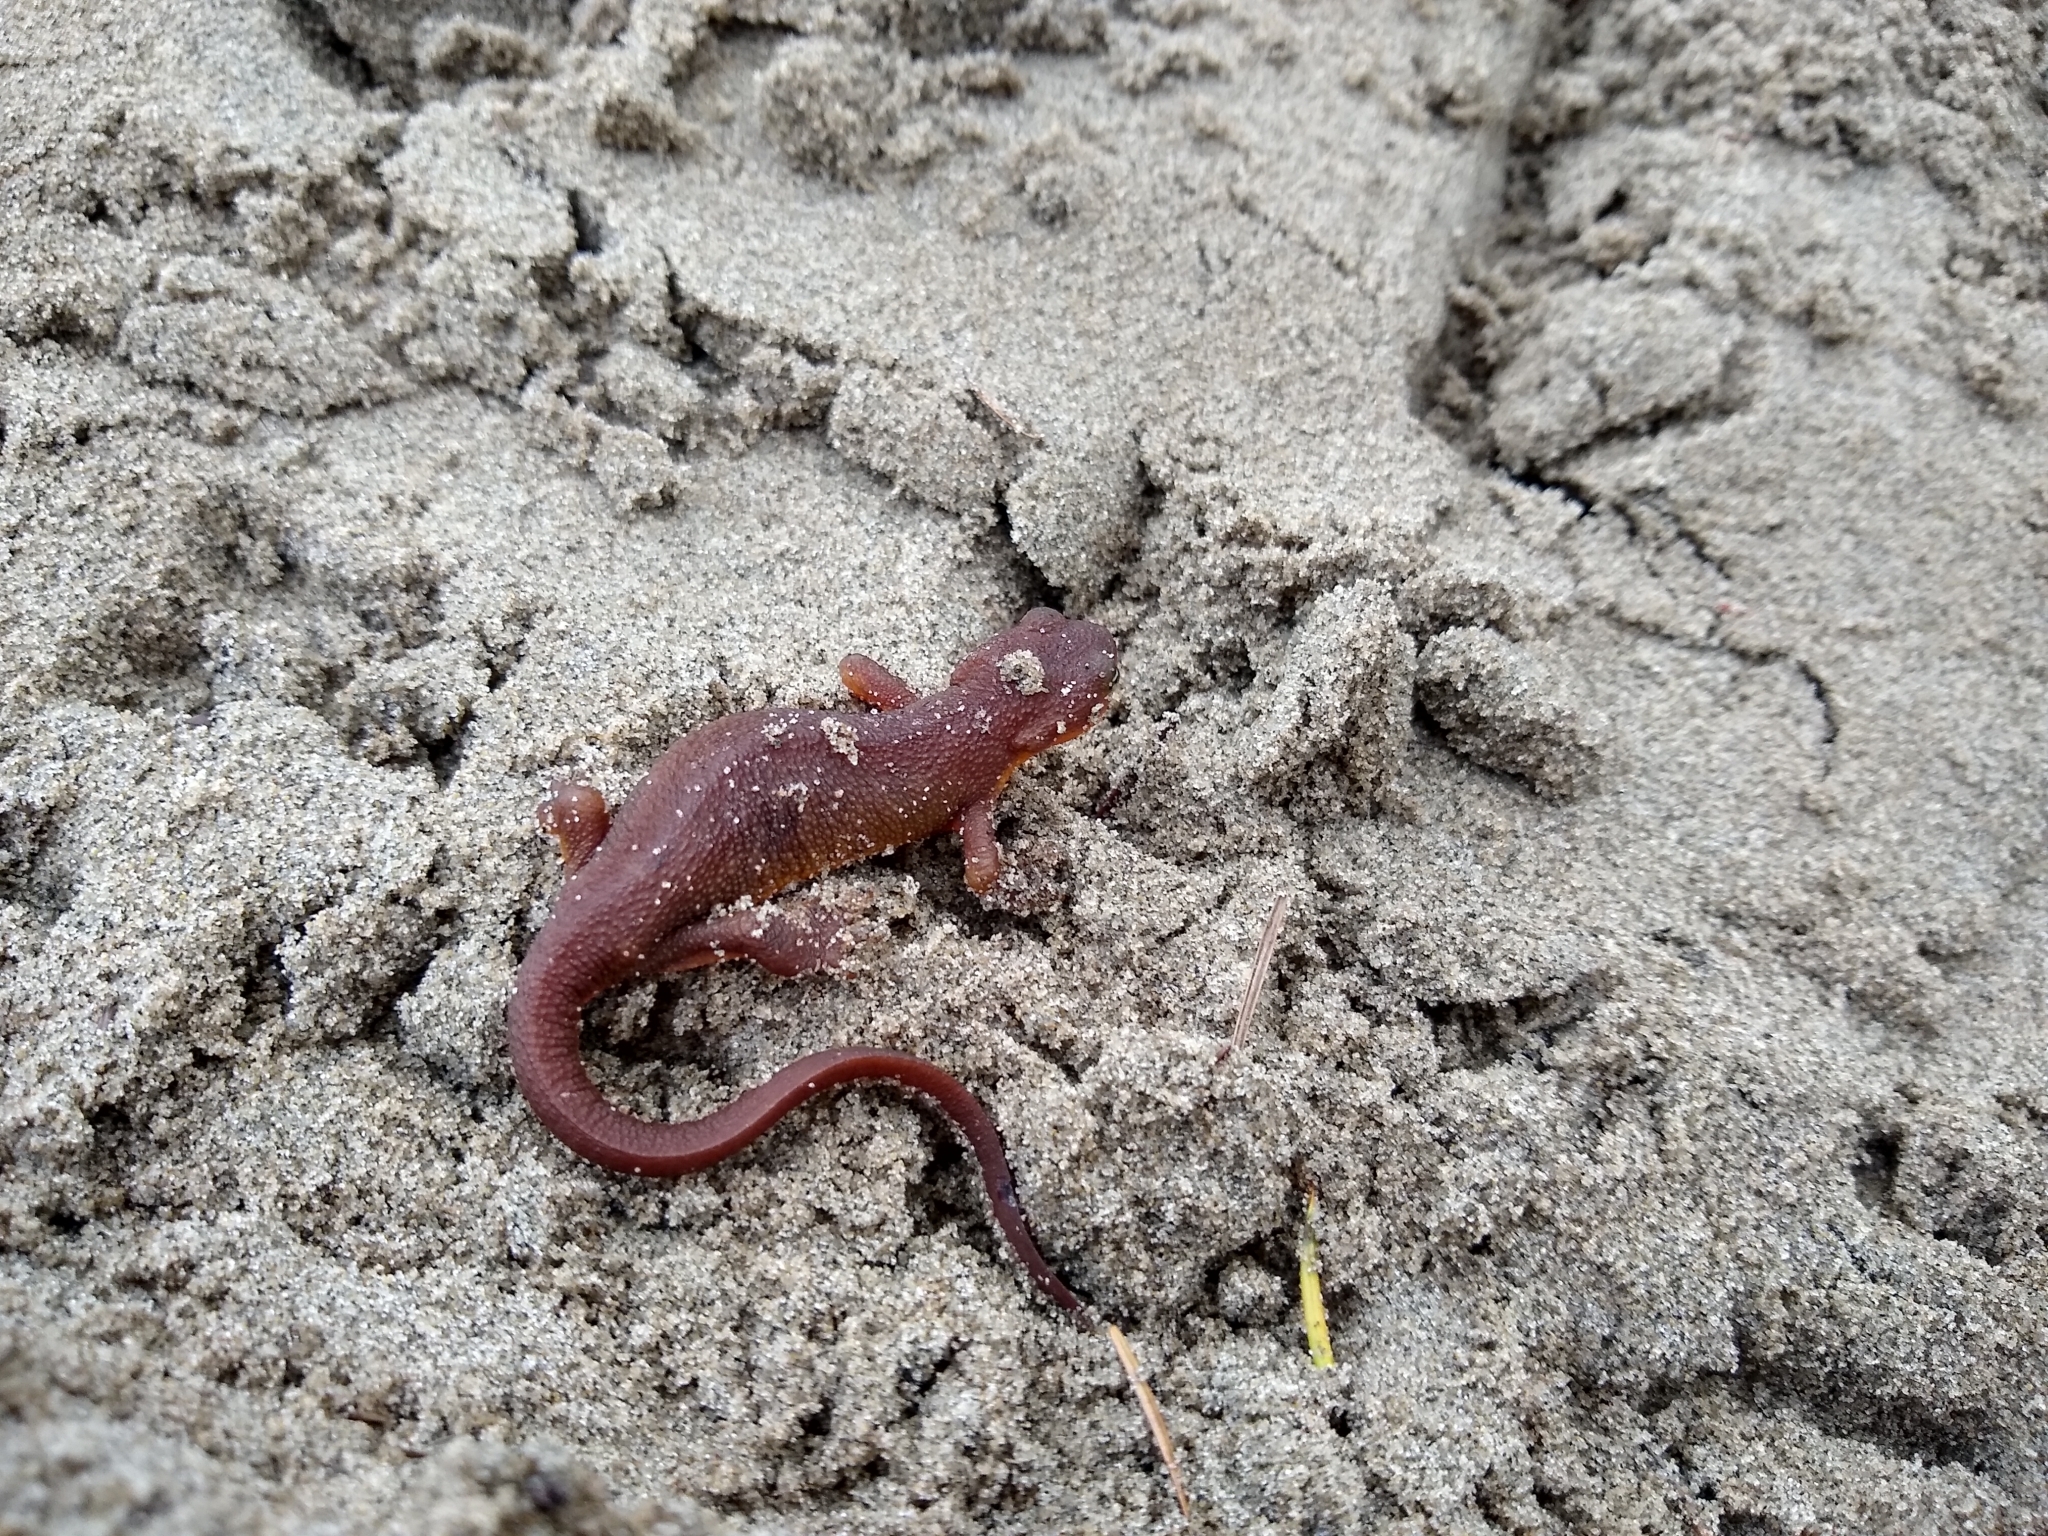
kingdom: Animalia
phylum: Chordata
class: Amphibia
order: Caudata
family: Salamandridae
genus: Taricha
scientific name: Taricha granulosa
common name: Roughskin newt
